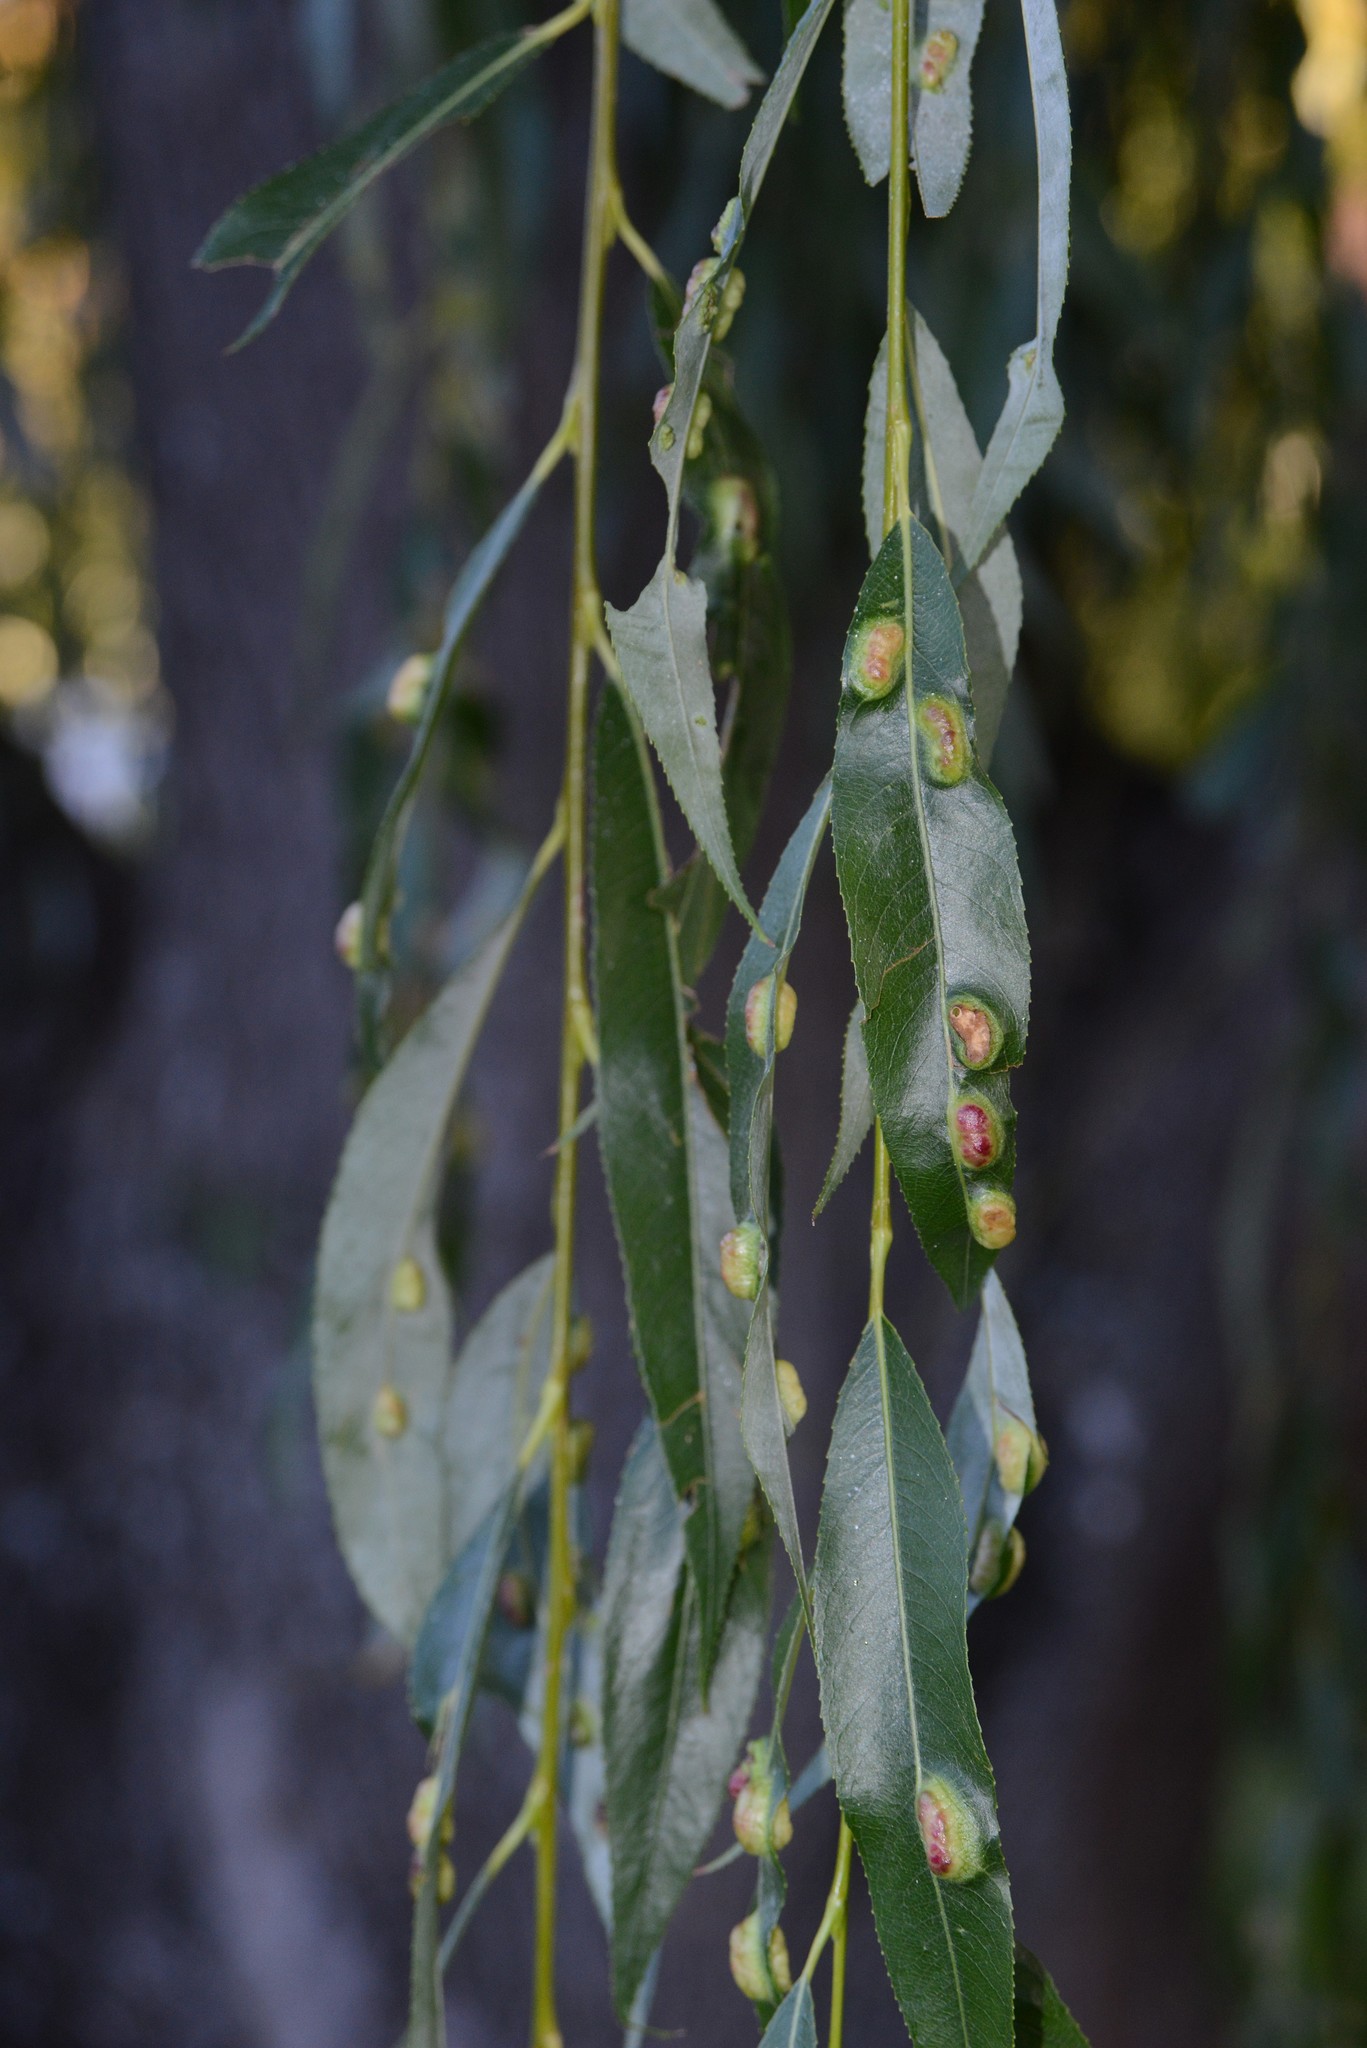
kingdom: Animalia
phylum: Arthropoda
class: Insecta
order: Hymenoptera
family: Tenthredinidae
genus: Pontania
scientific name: Pontania proxima
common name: Common sawfly
